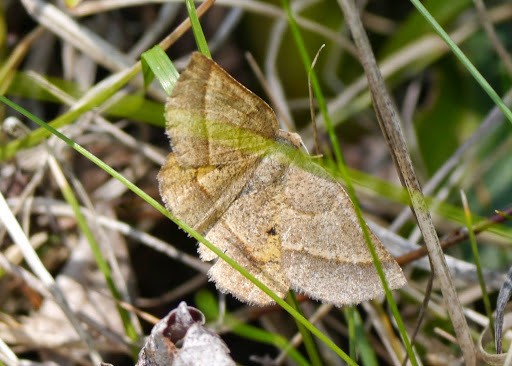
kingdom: Animalia
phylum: Arthropoda
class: Insecta
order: Lepidoptera
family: Geometridae
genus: Metarranthis
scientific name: Metarranthis obfirmaria
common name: Yellow-washed metarranthis
